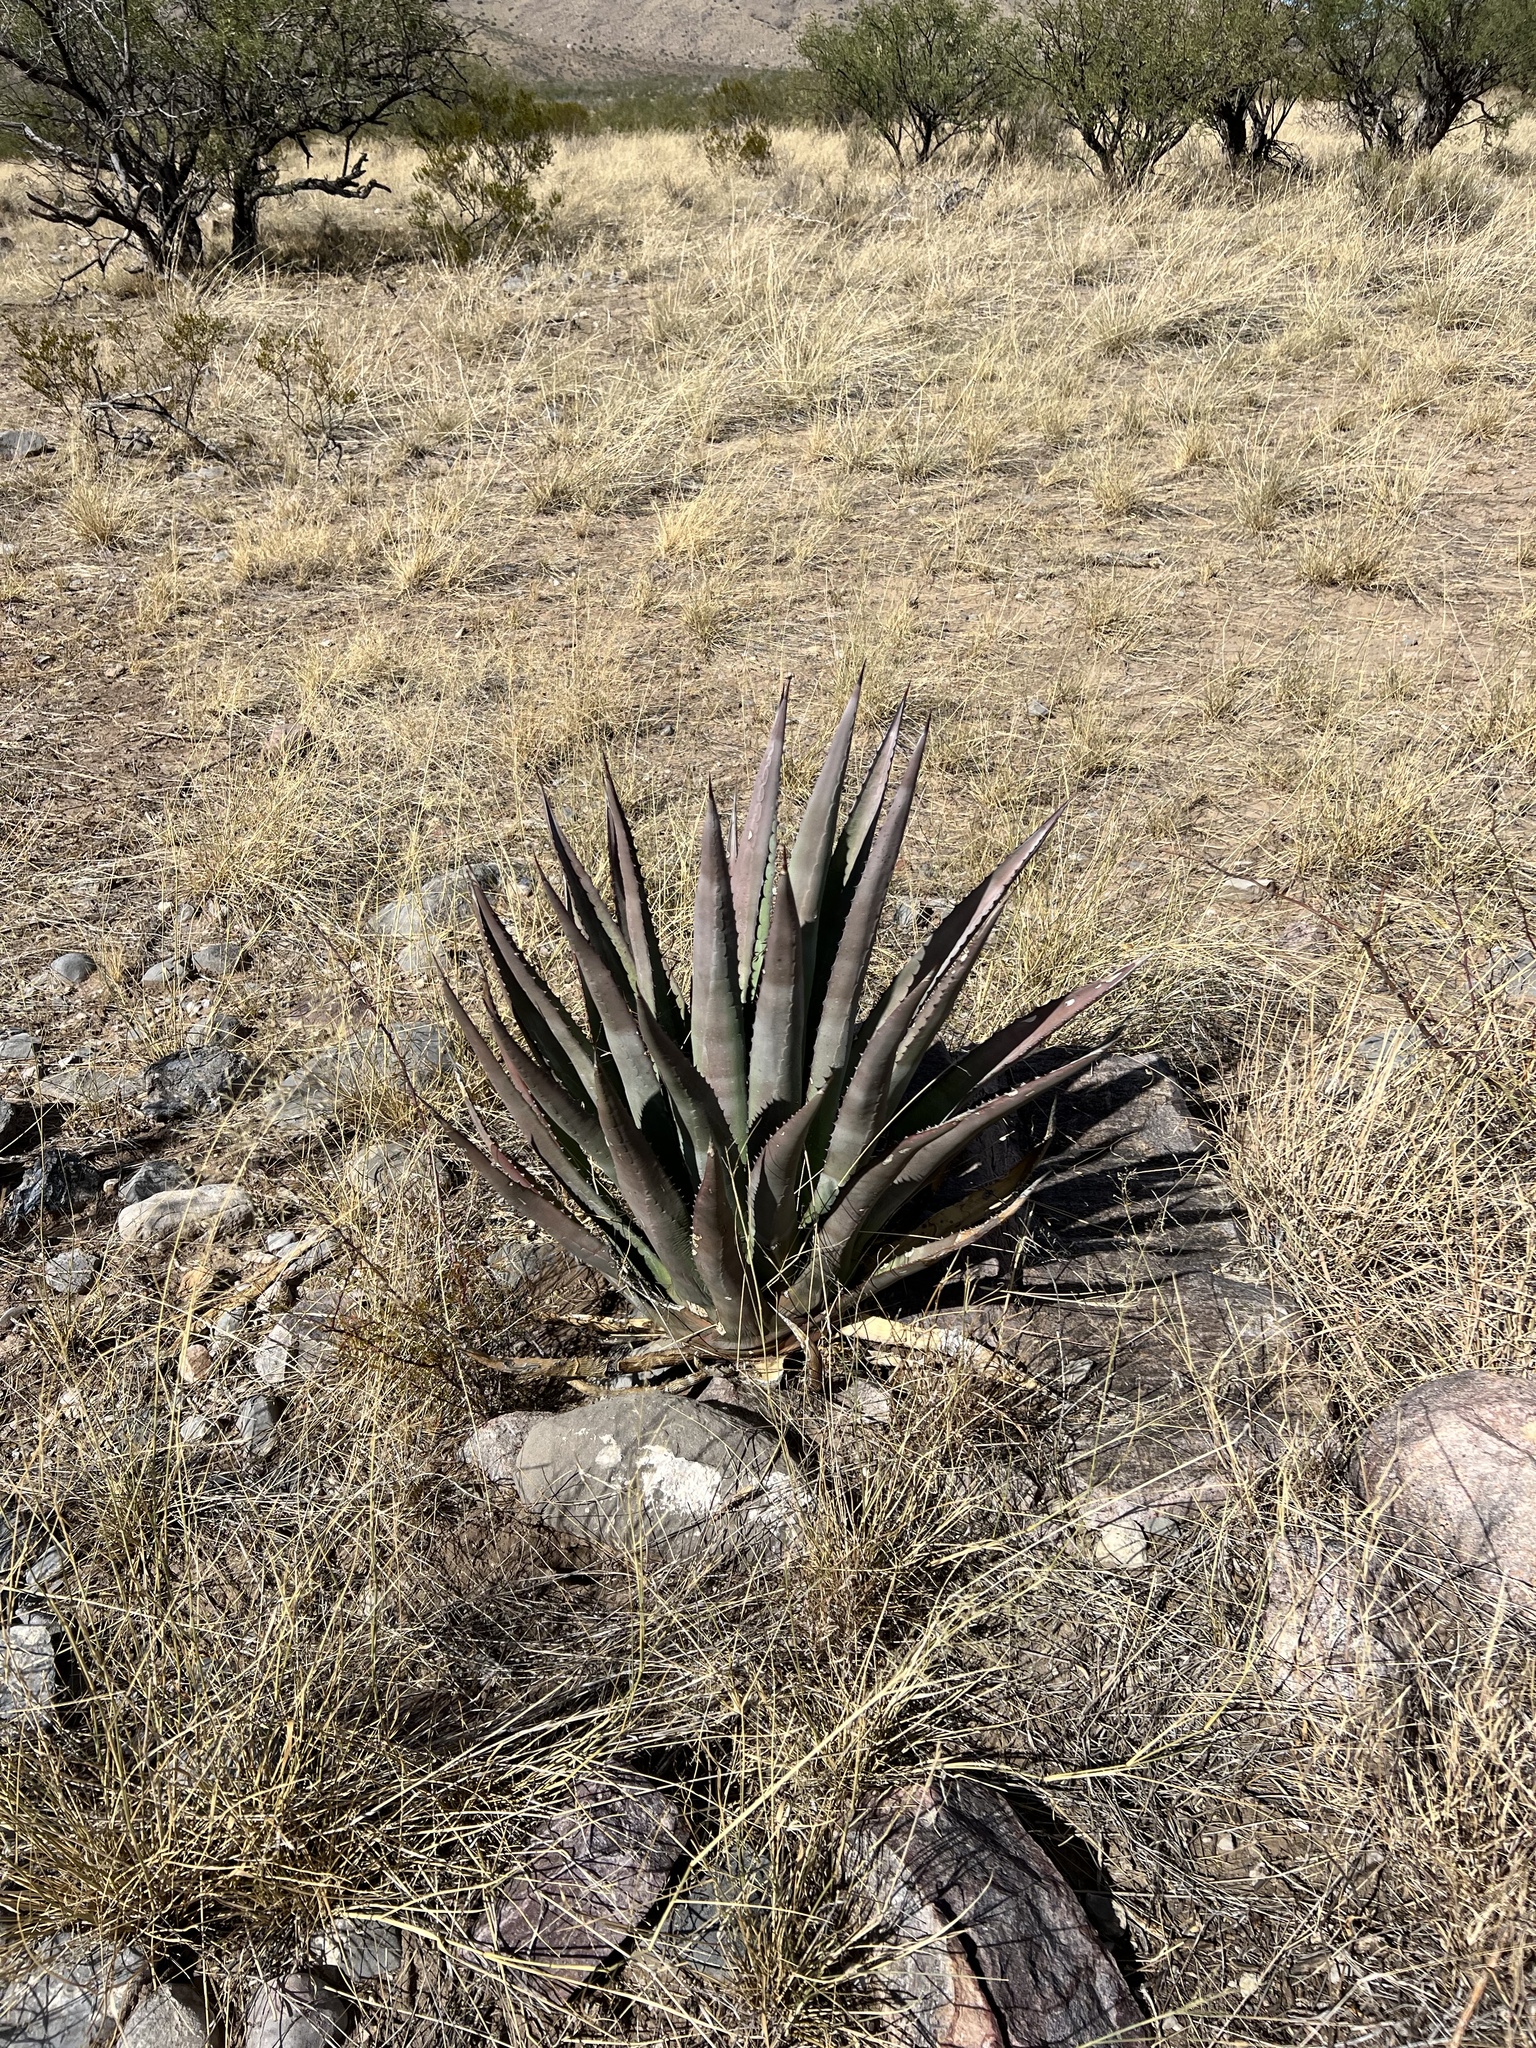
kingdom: Plantae
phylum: Tracheophyta
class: Liliopsida
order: Asparagales
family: Asparagaceae
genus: Agave
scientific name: Agave palmeri
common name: Palmer agave
